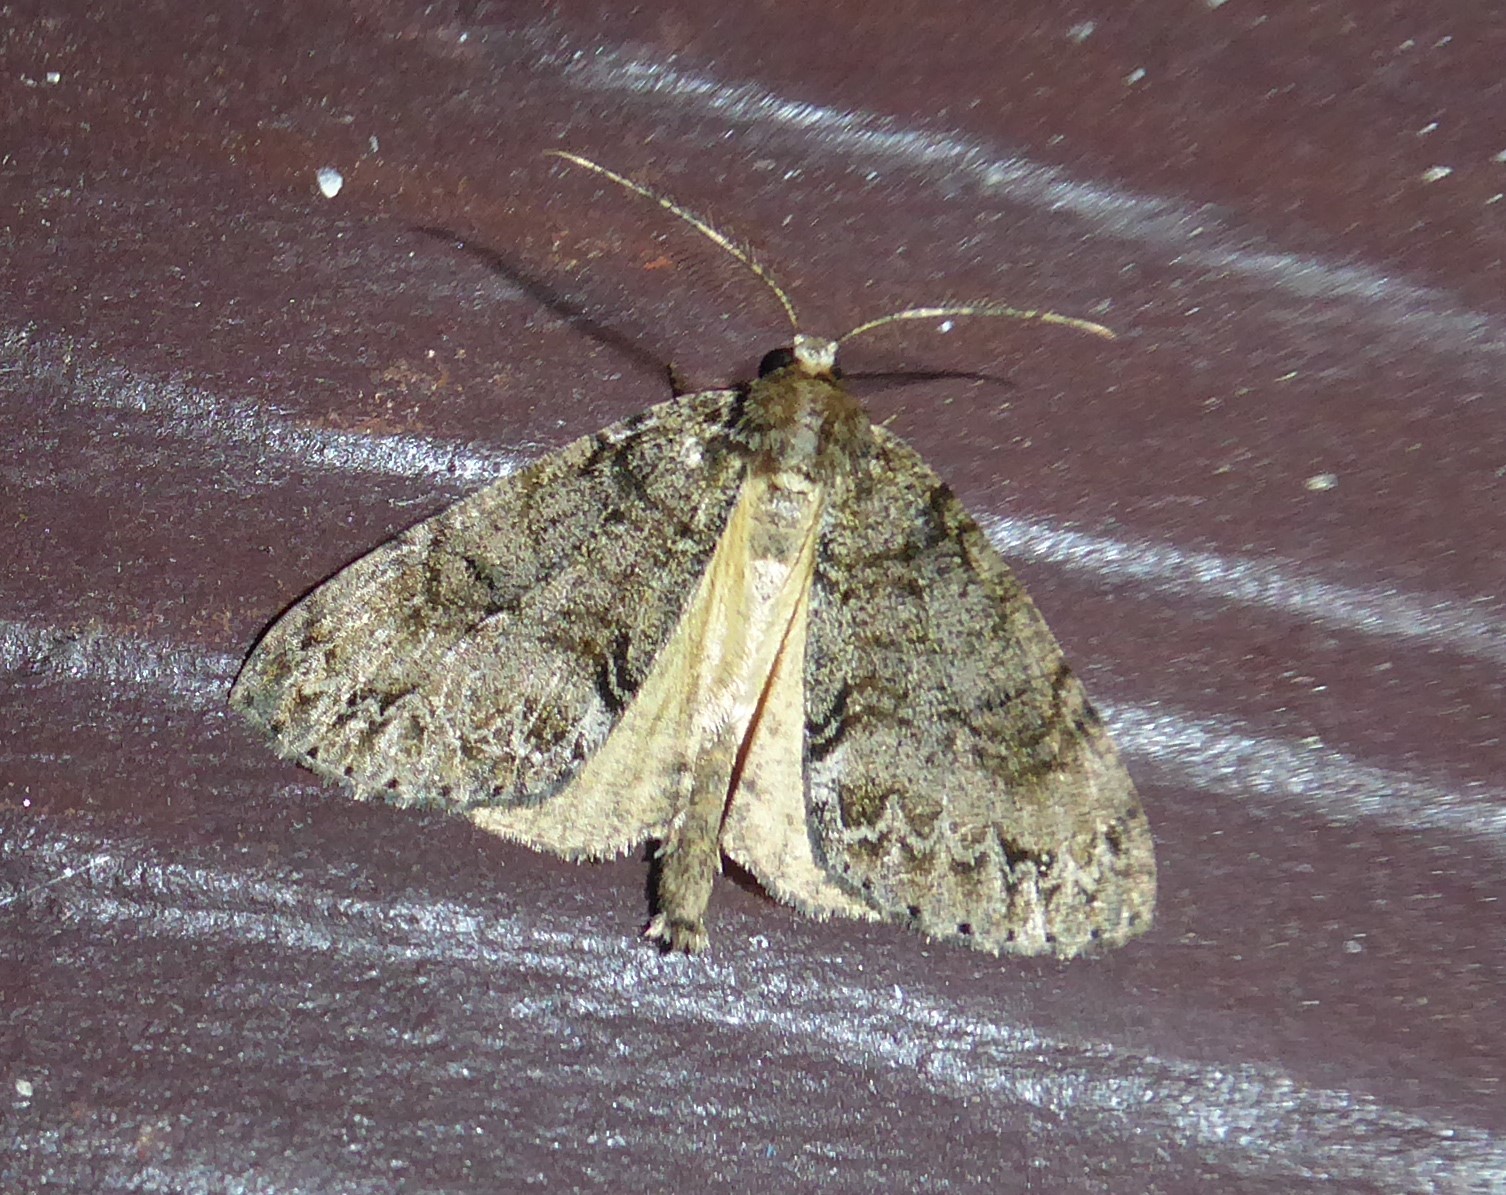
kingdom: Animalia
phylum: Arthropoda
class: Insecta
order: Lepidoptera
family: Geometridae
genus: Pseudocoremia
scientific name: Pseudocoremia suavis
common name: Common forest looper
